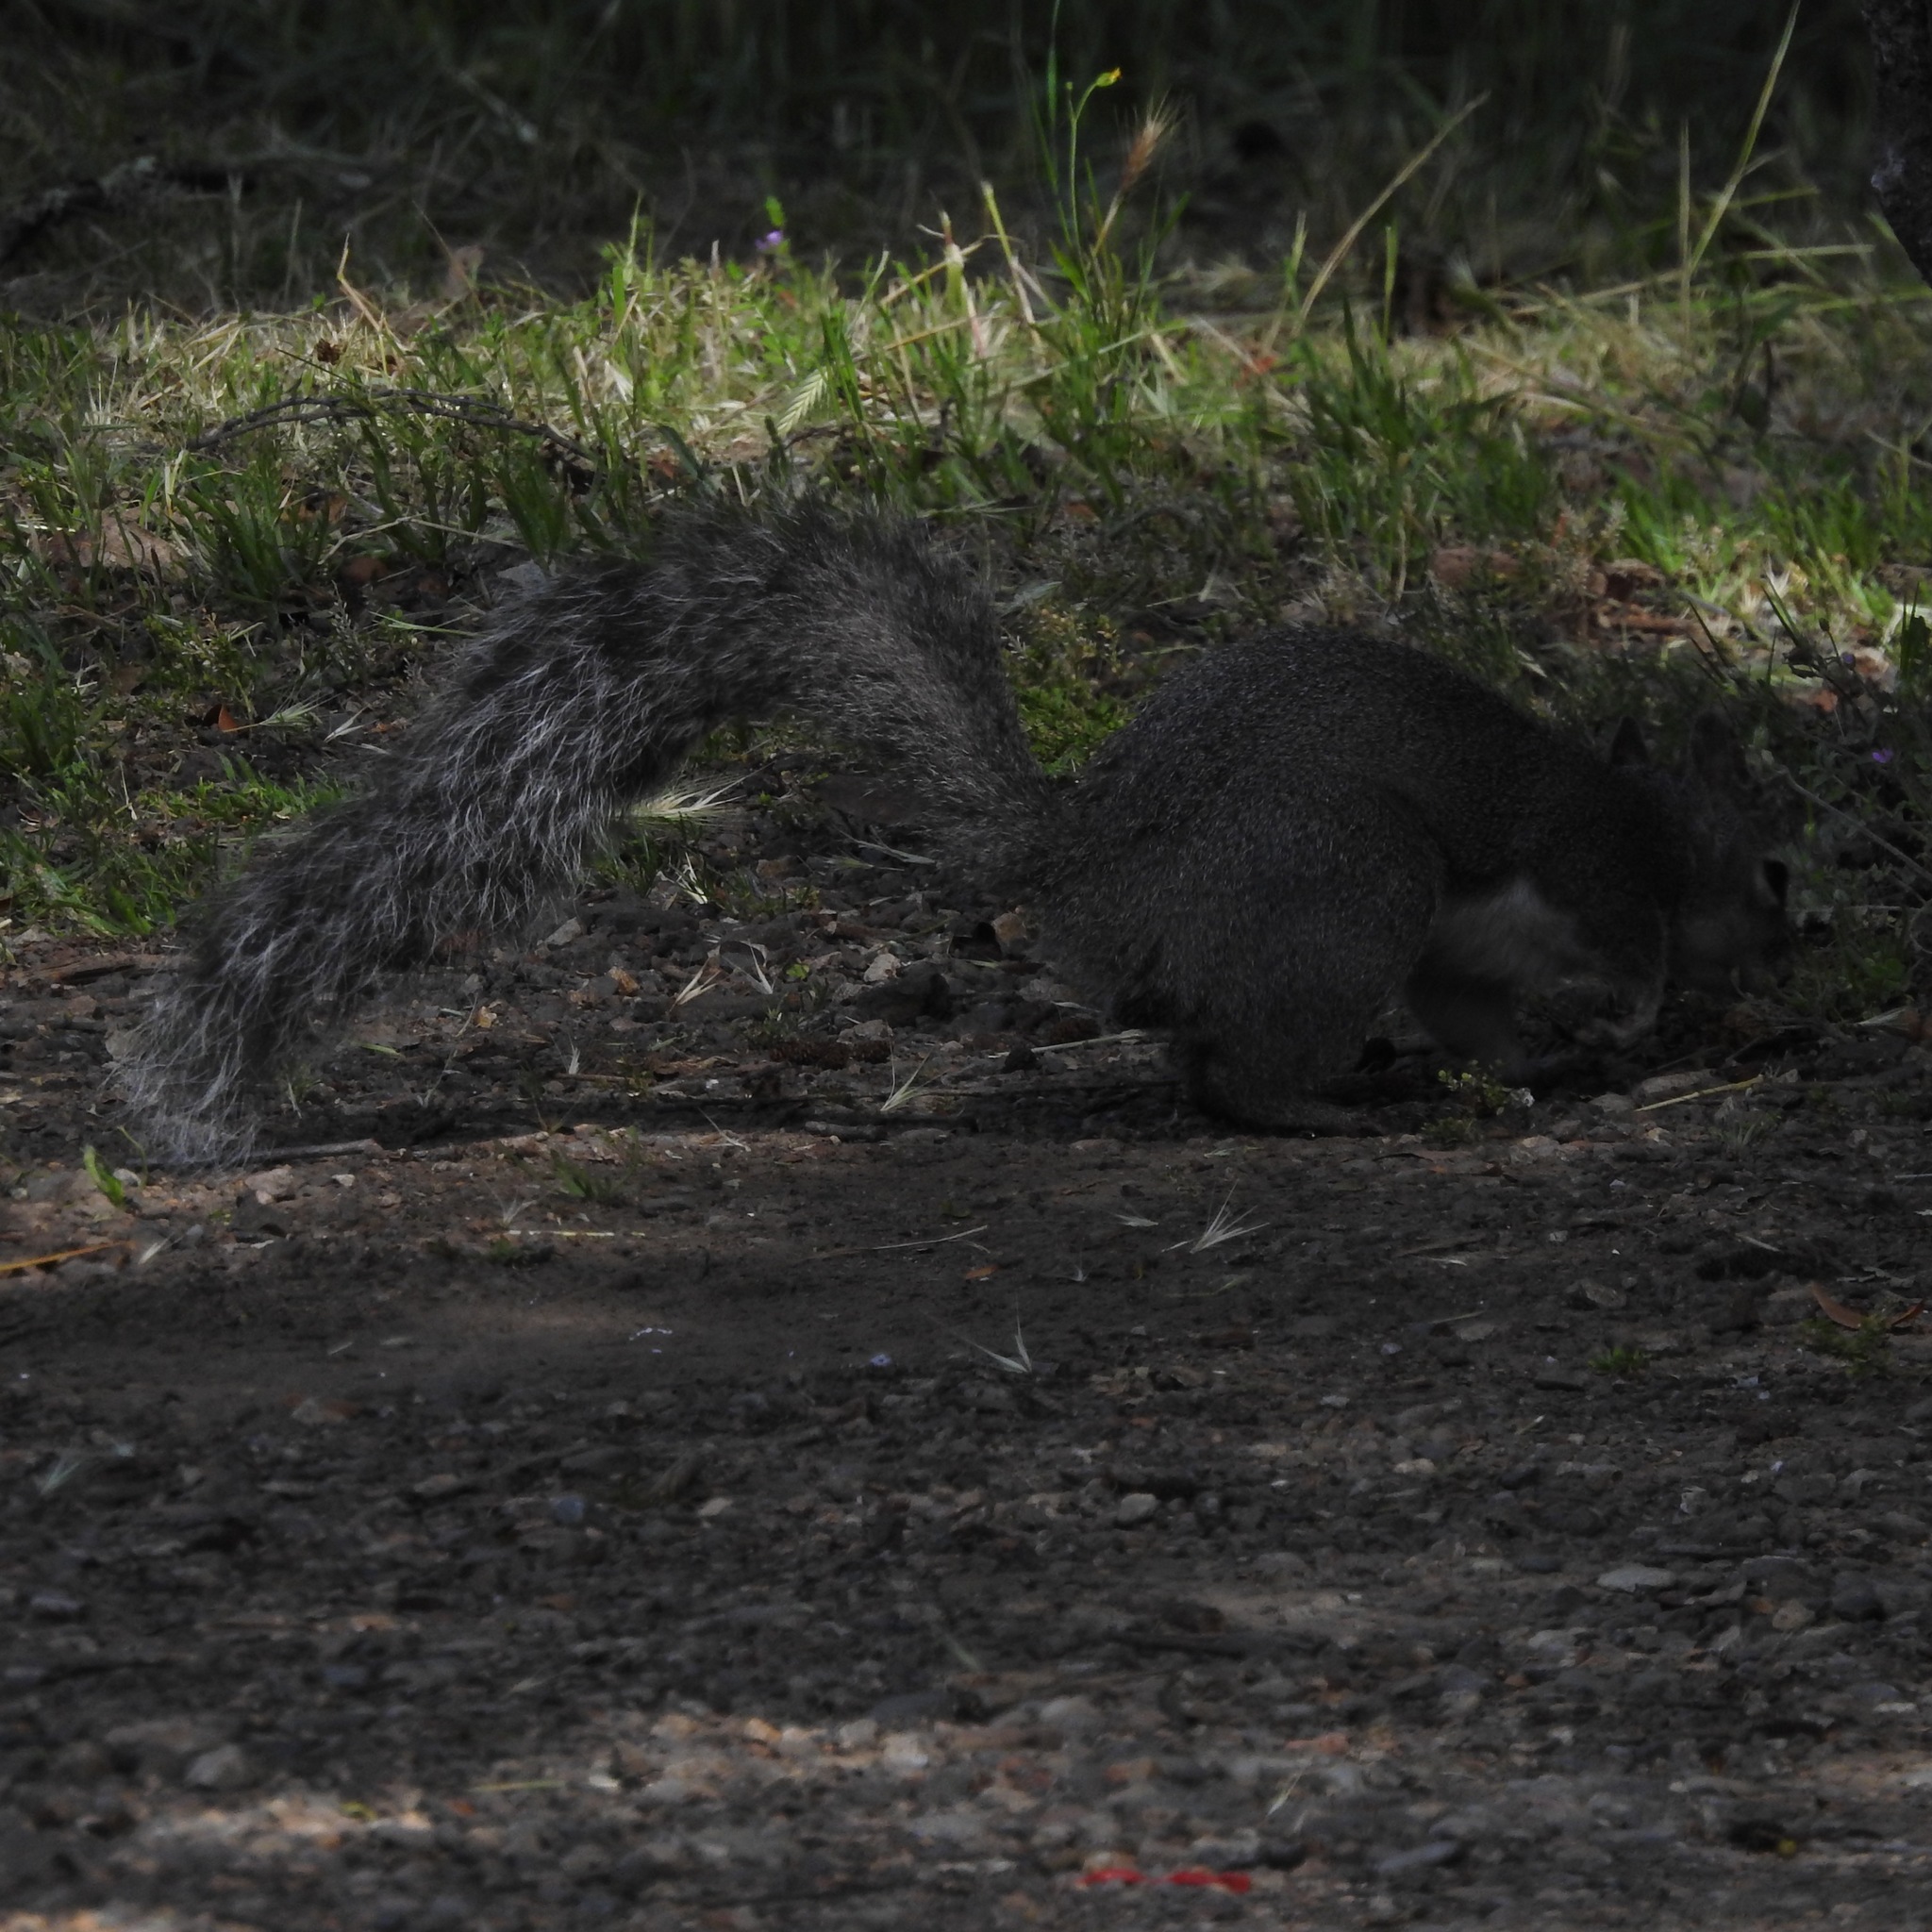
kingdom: Animalia
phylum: Chordata
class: Mammalia
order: Rodentia
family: Sciuridae
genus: Sciurus
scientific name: Sciurus griseus
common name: Western gray squirrel
